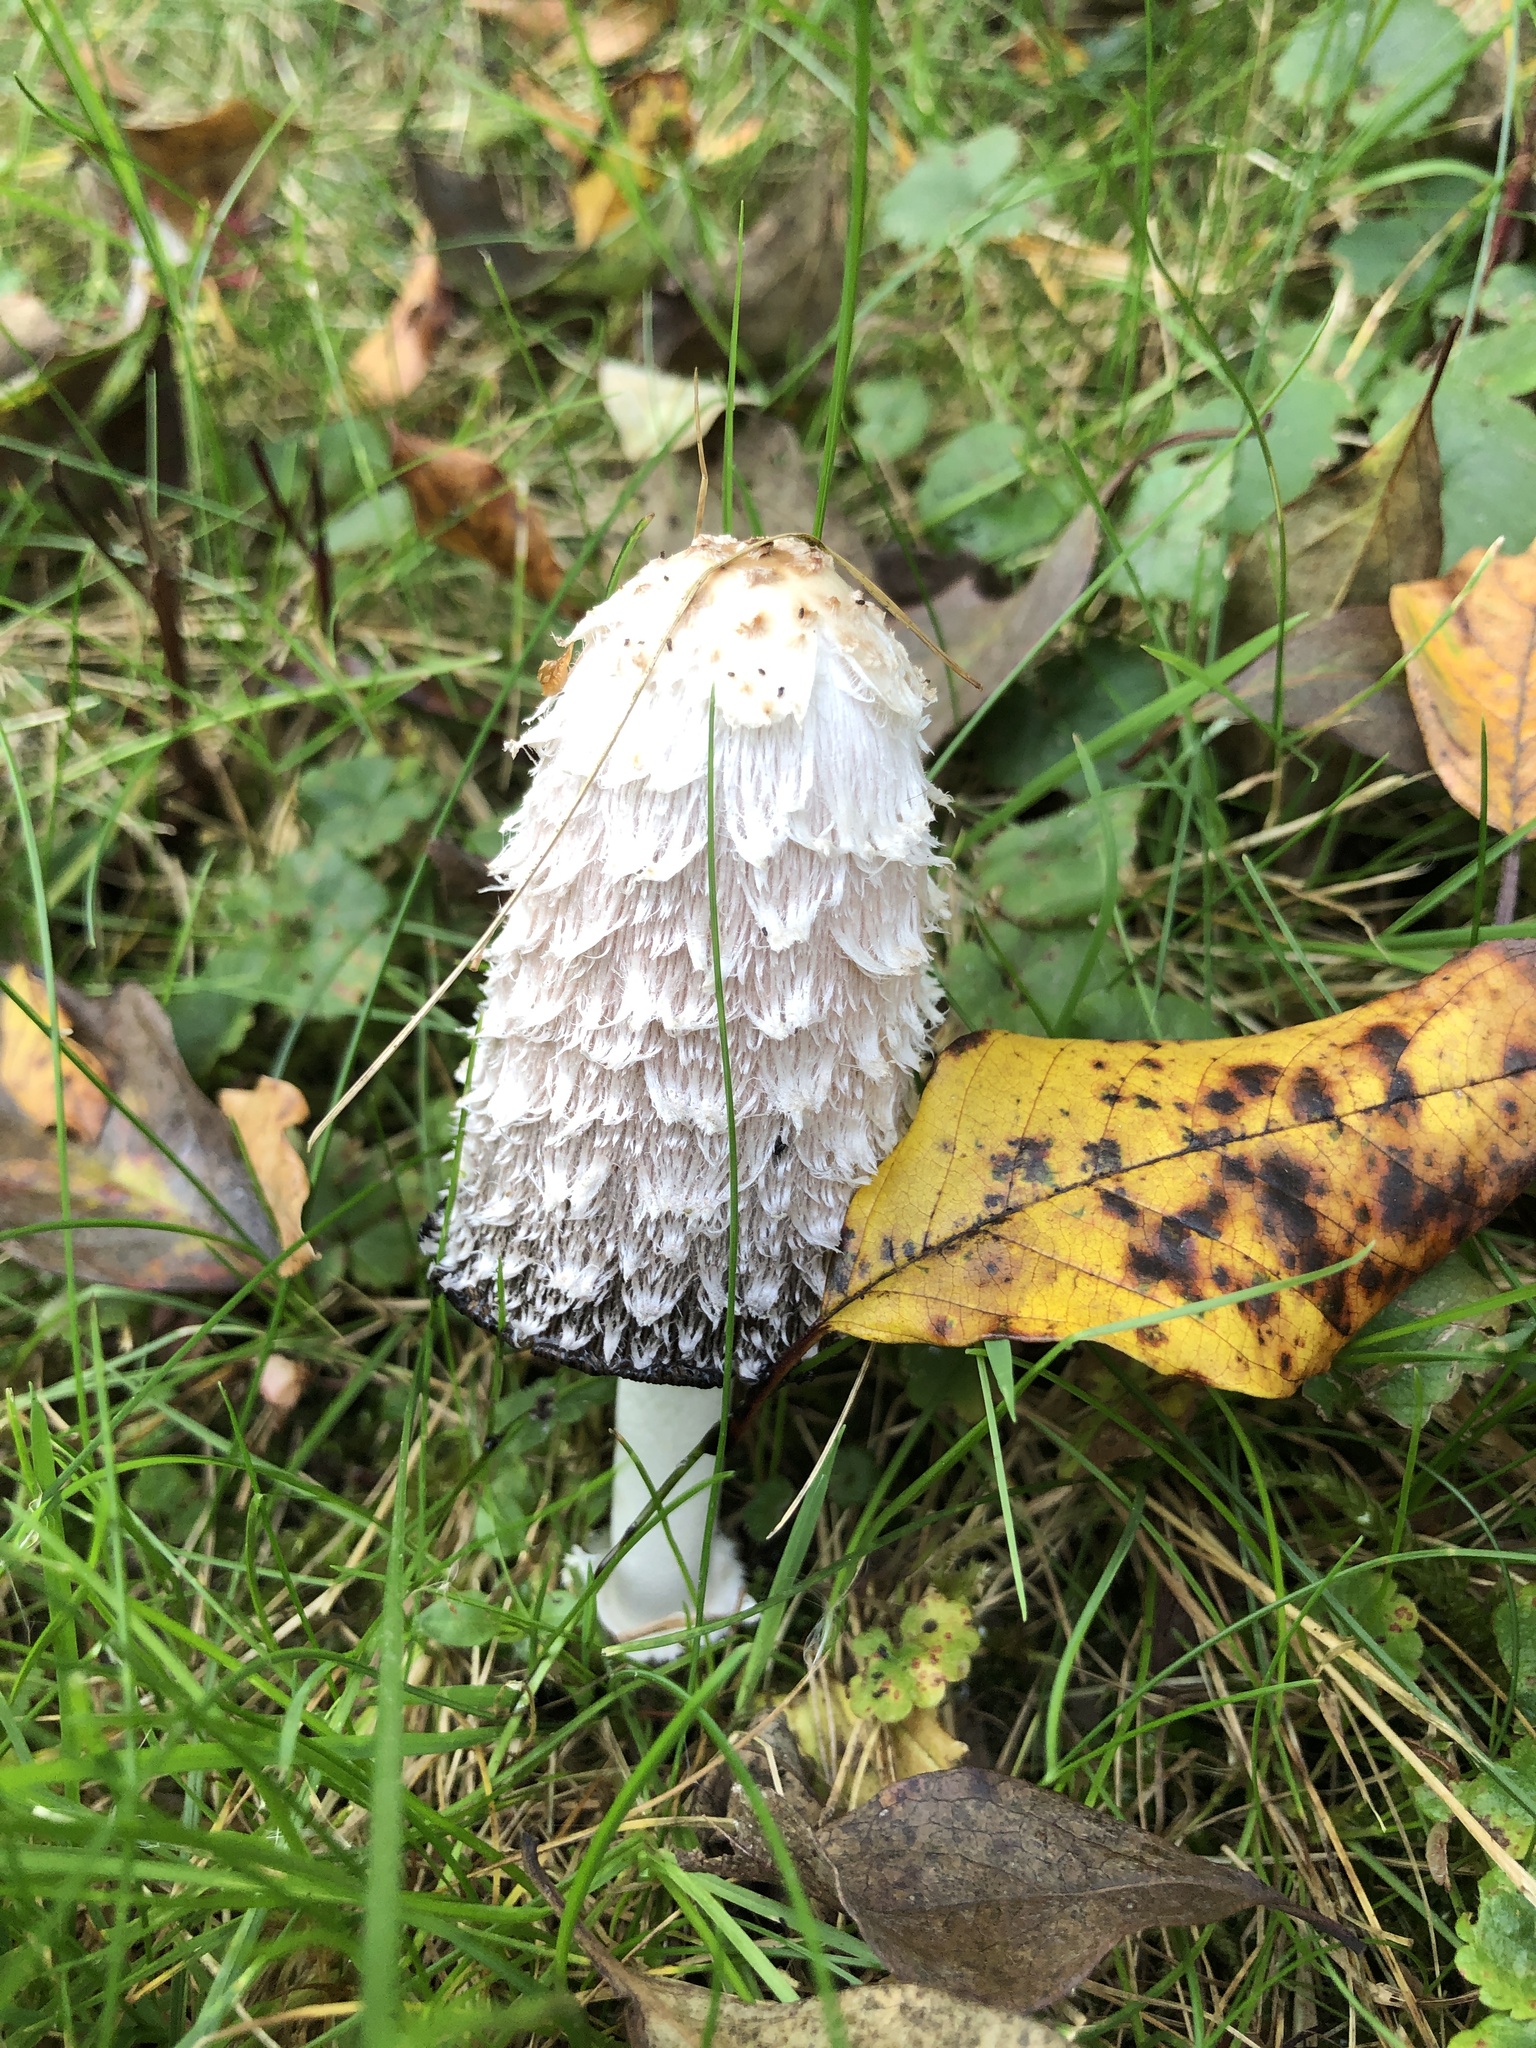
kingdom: Fungi
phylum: Basidiomycota
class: Agaricomycetes
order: Agaricales
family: Agaricaceae
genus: Coprinus
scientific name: Coprinus comatus
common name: Lawyer's wig
